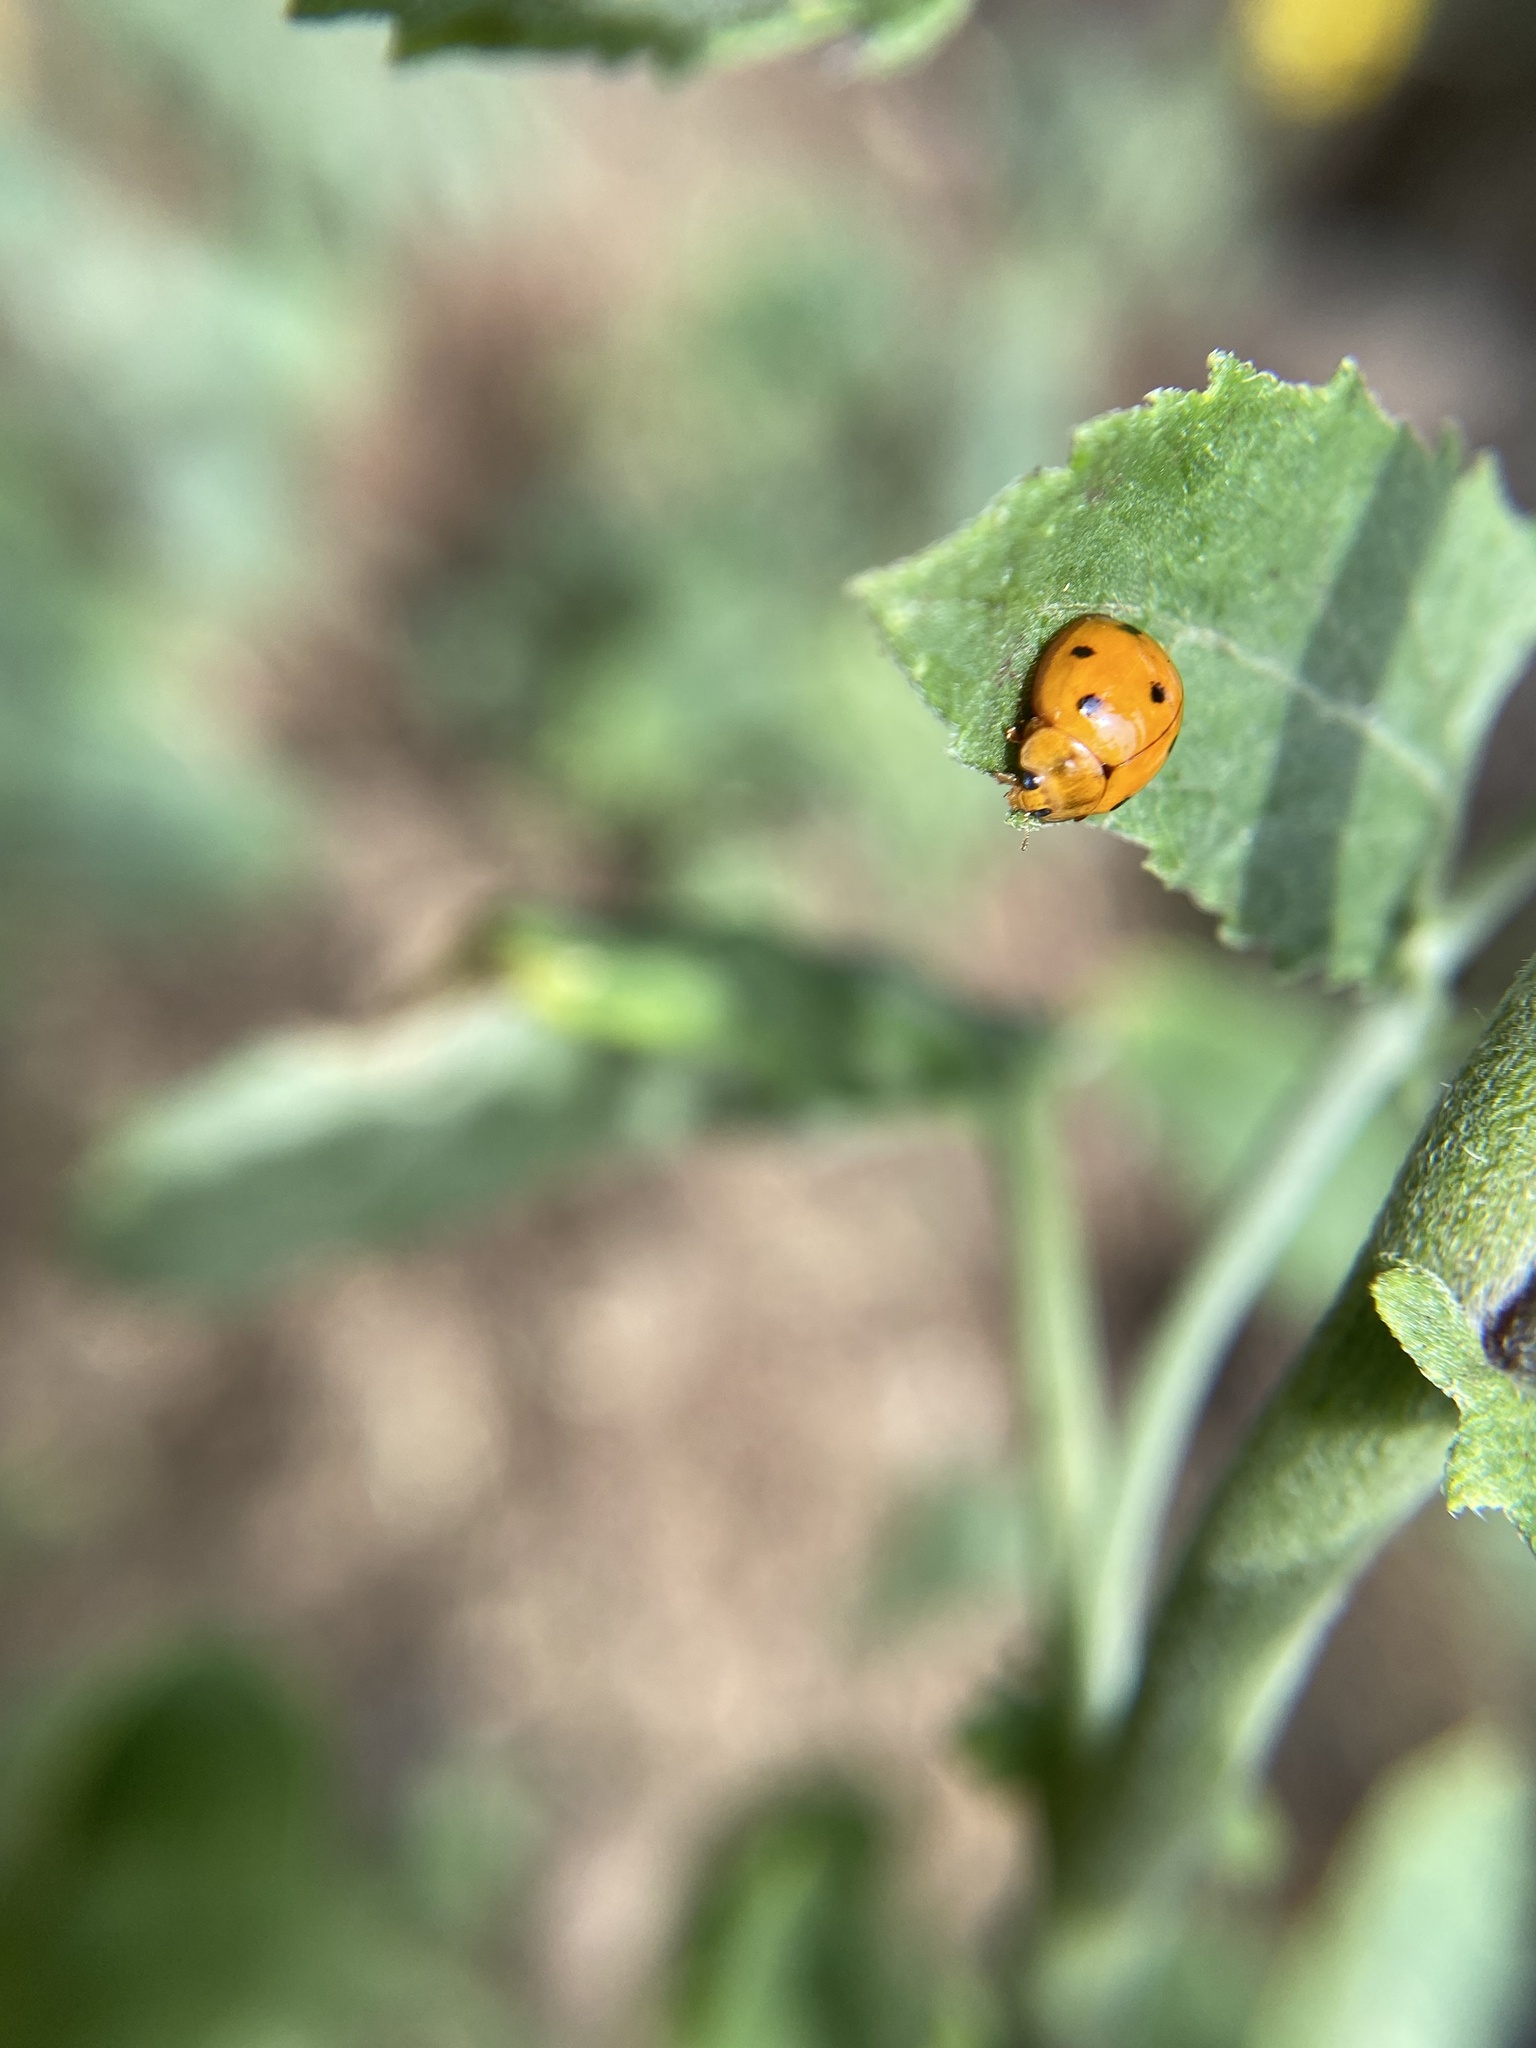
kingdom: Animalia
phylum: Arthropoda
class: Insecta
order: Coleoptera
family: Coccinellidae
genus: Coelophora
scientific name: Coelophora inaequalis
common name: Common australian lady beetle
